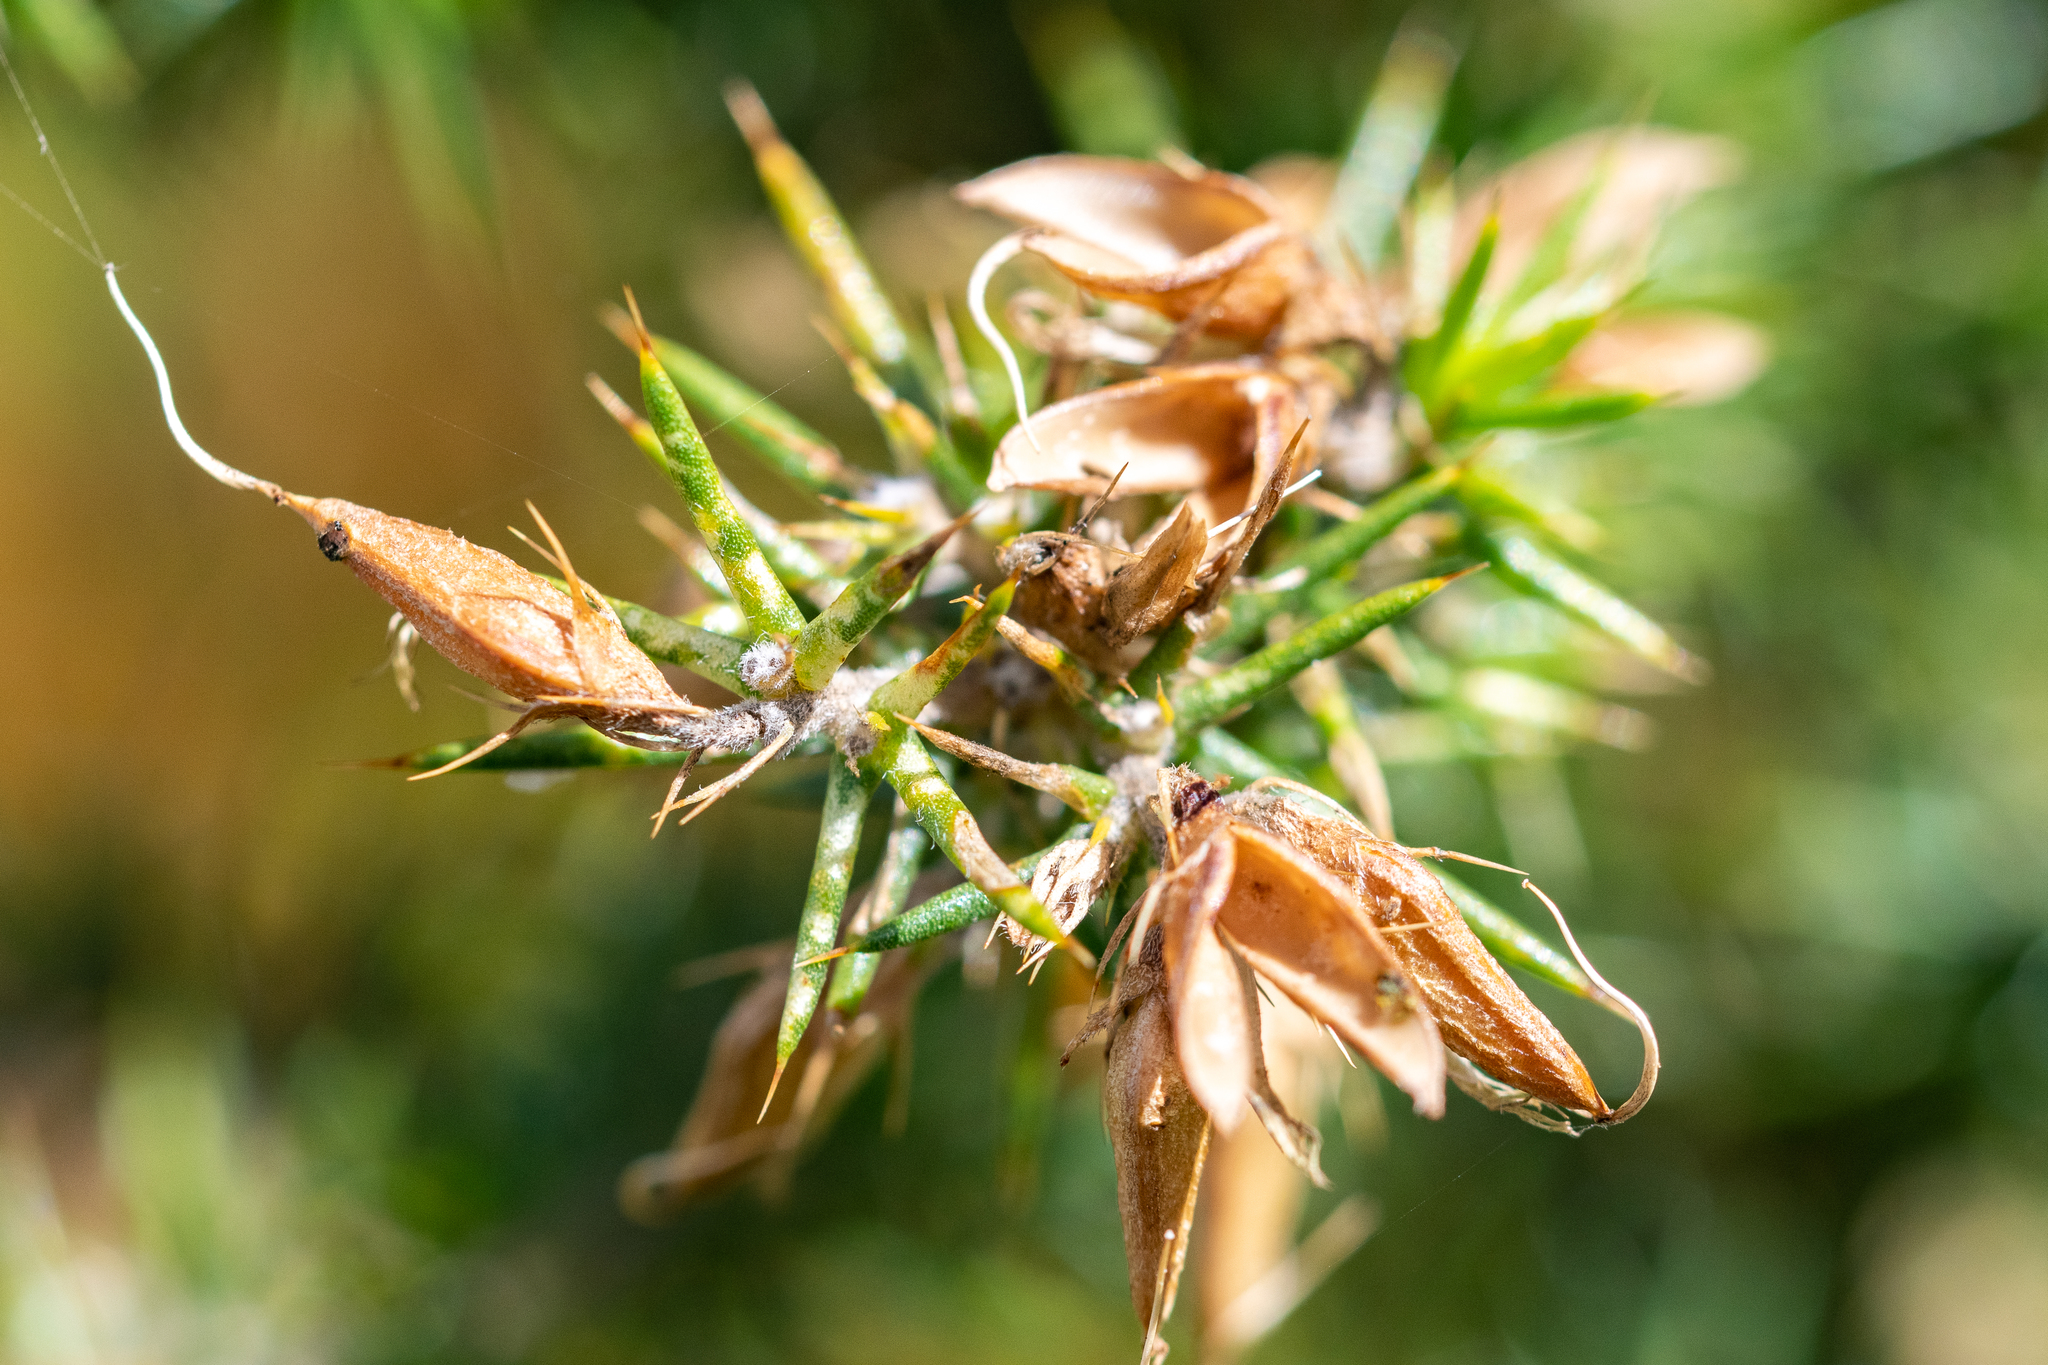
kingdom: Plantae
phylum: Tracheophyta
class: Magnoliopsida
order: Fabales
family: Fabaceae
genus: Aspalathus
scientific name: Aspalathus astroites
